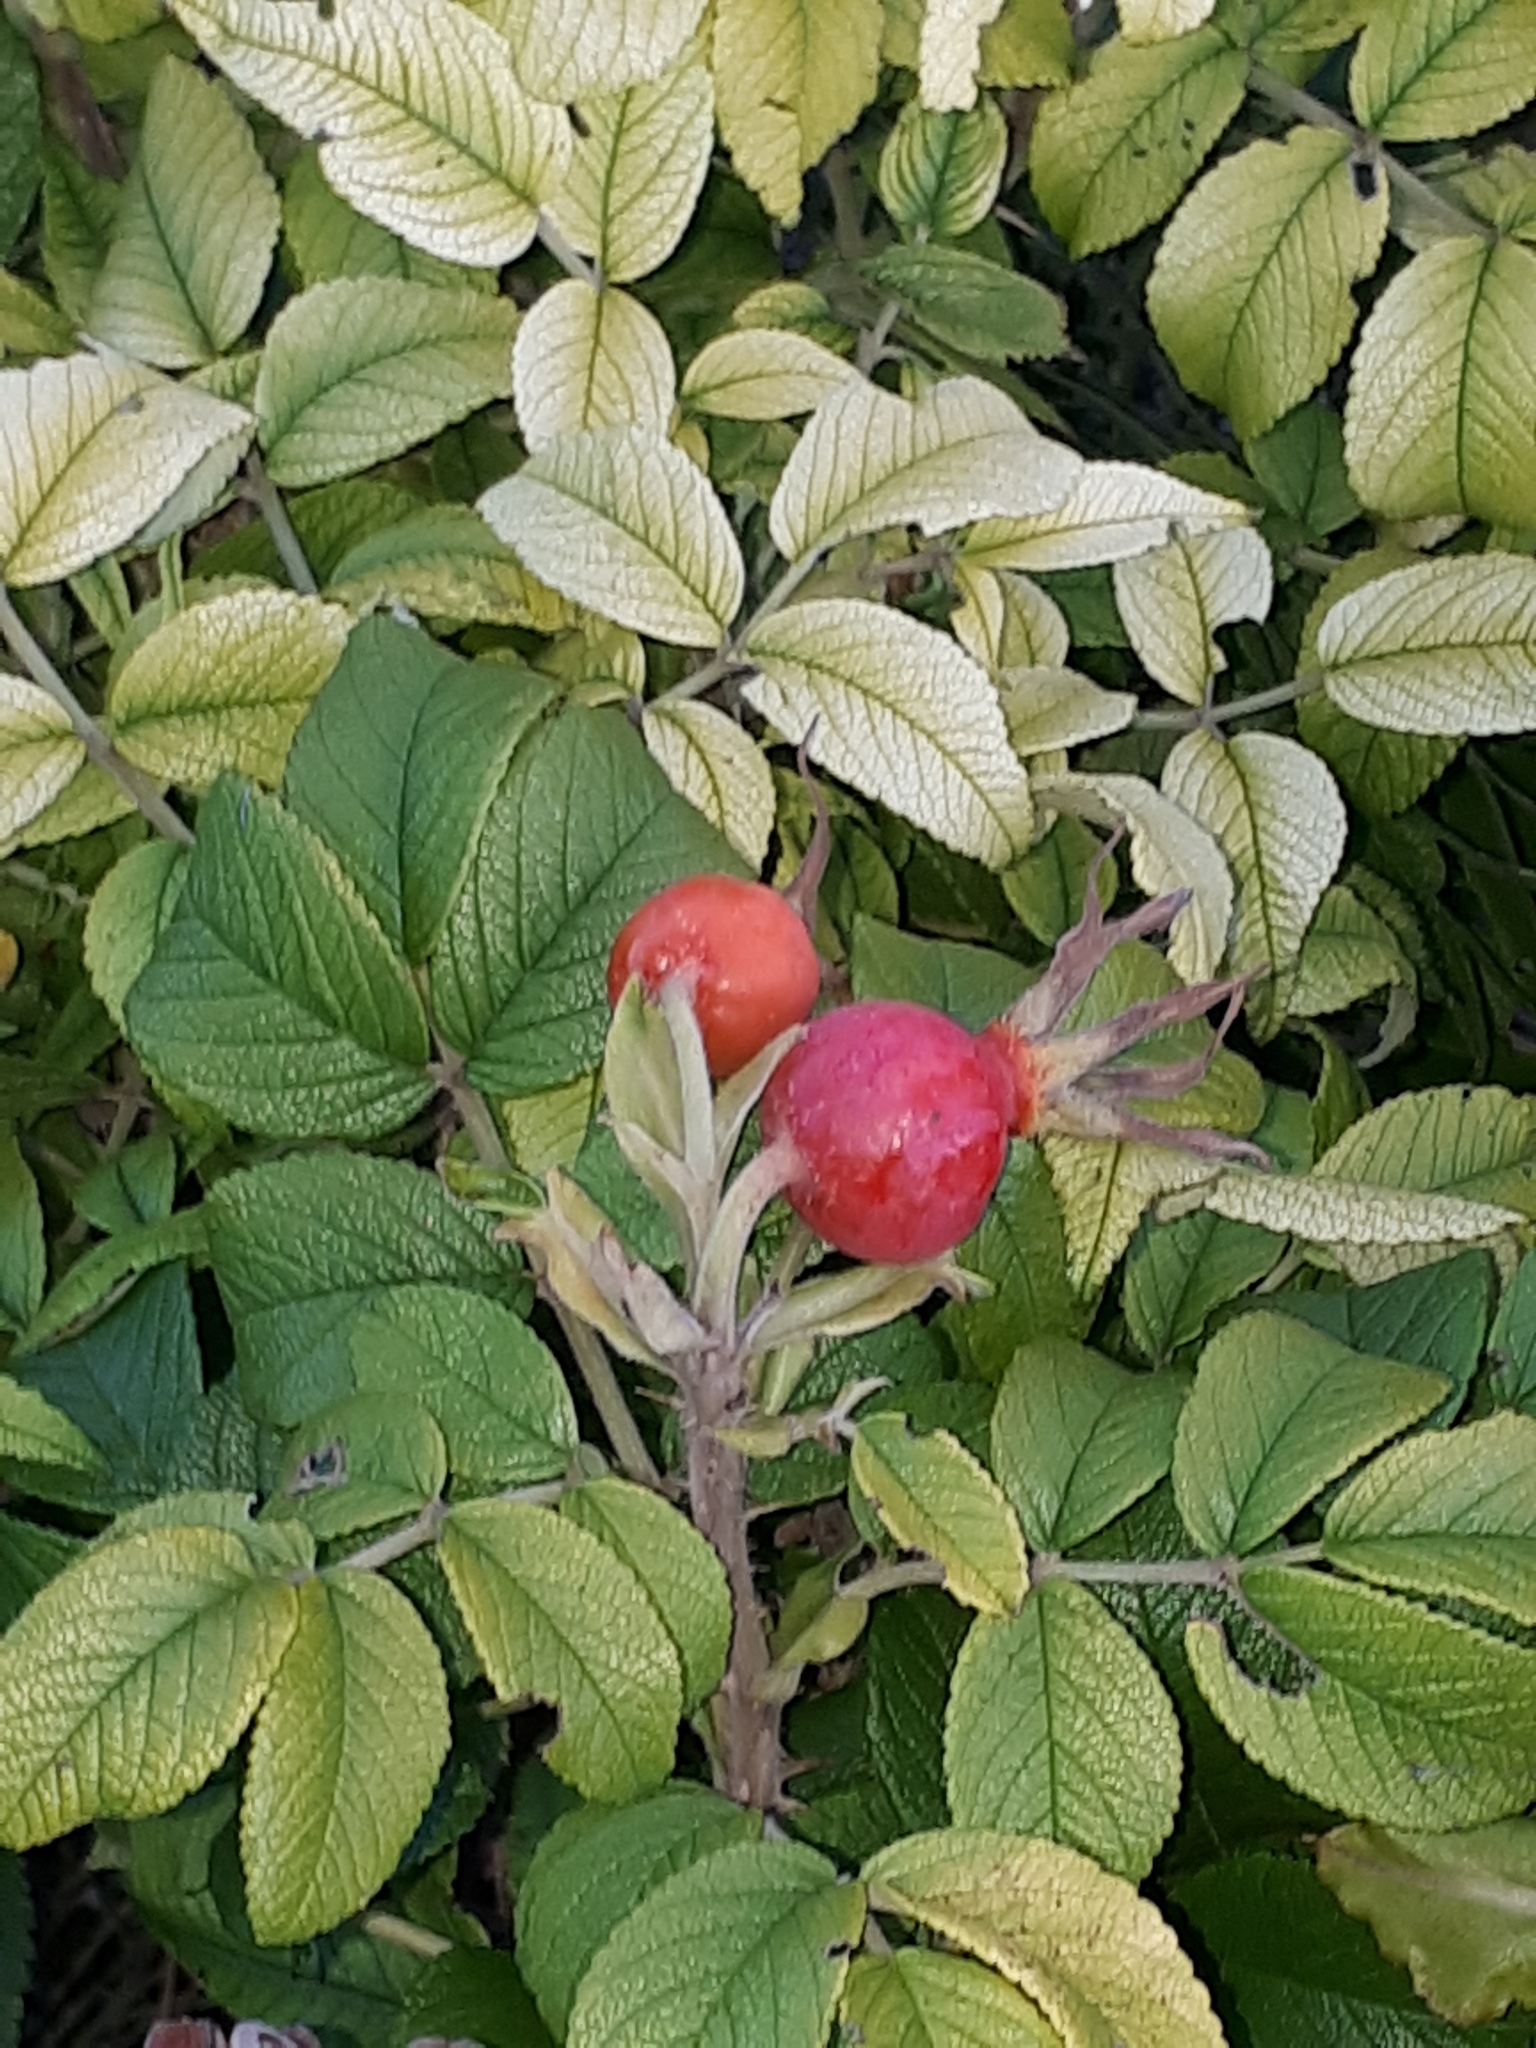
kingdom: Plantae
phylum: Tracheophyta
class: Magnoliopsida
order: Rosales
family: Rosaceae
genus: Rosa
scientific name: Rosa rugosa
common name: Japanese rose
